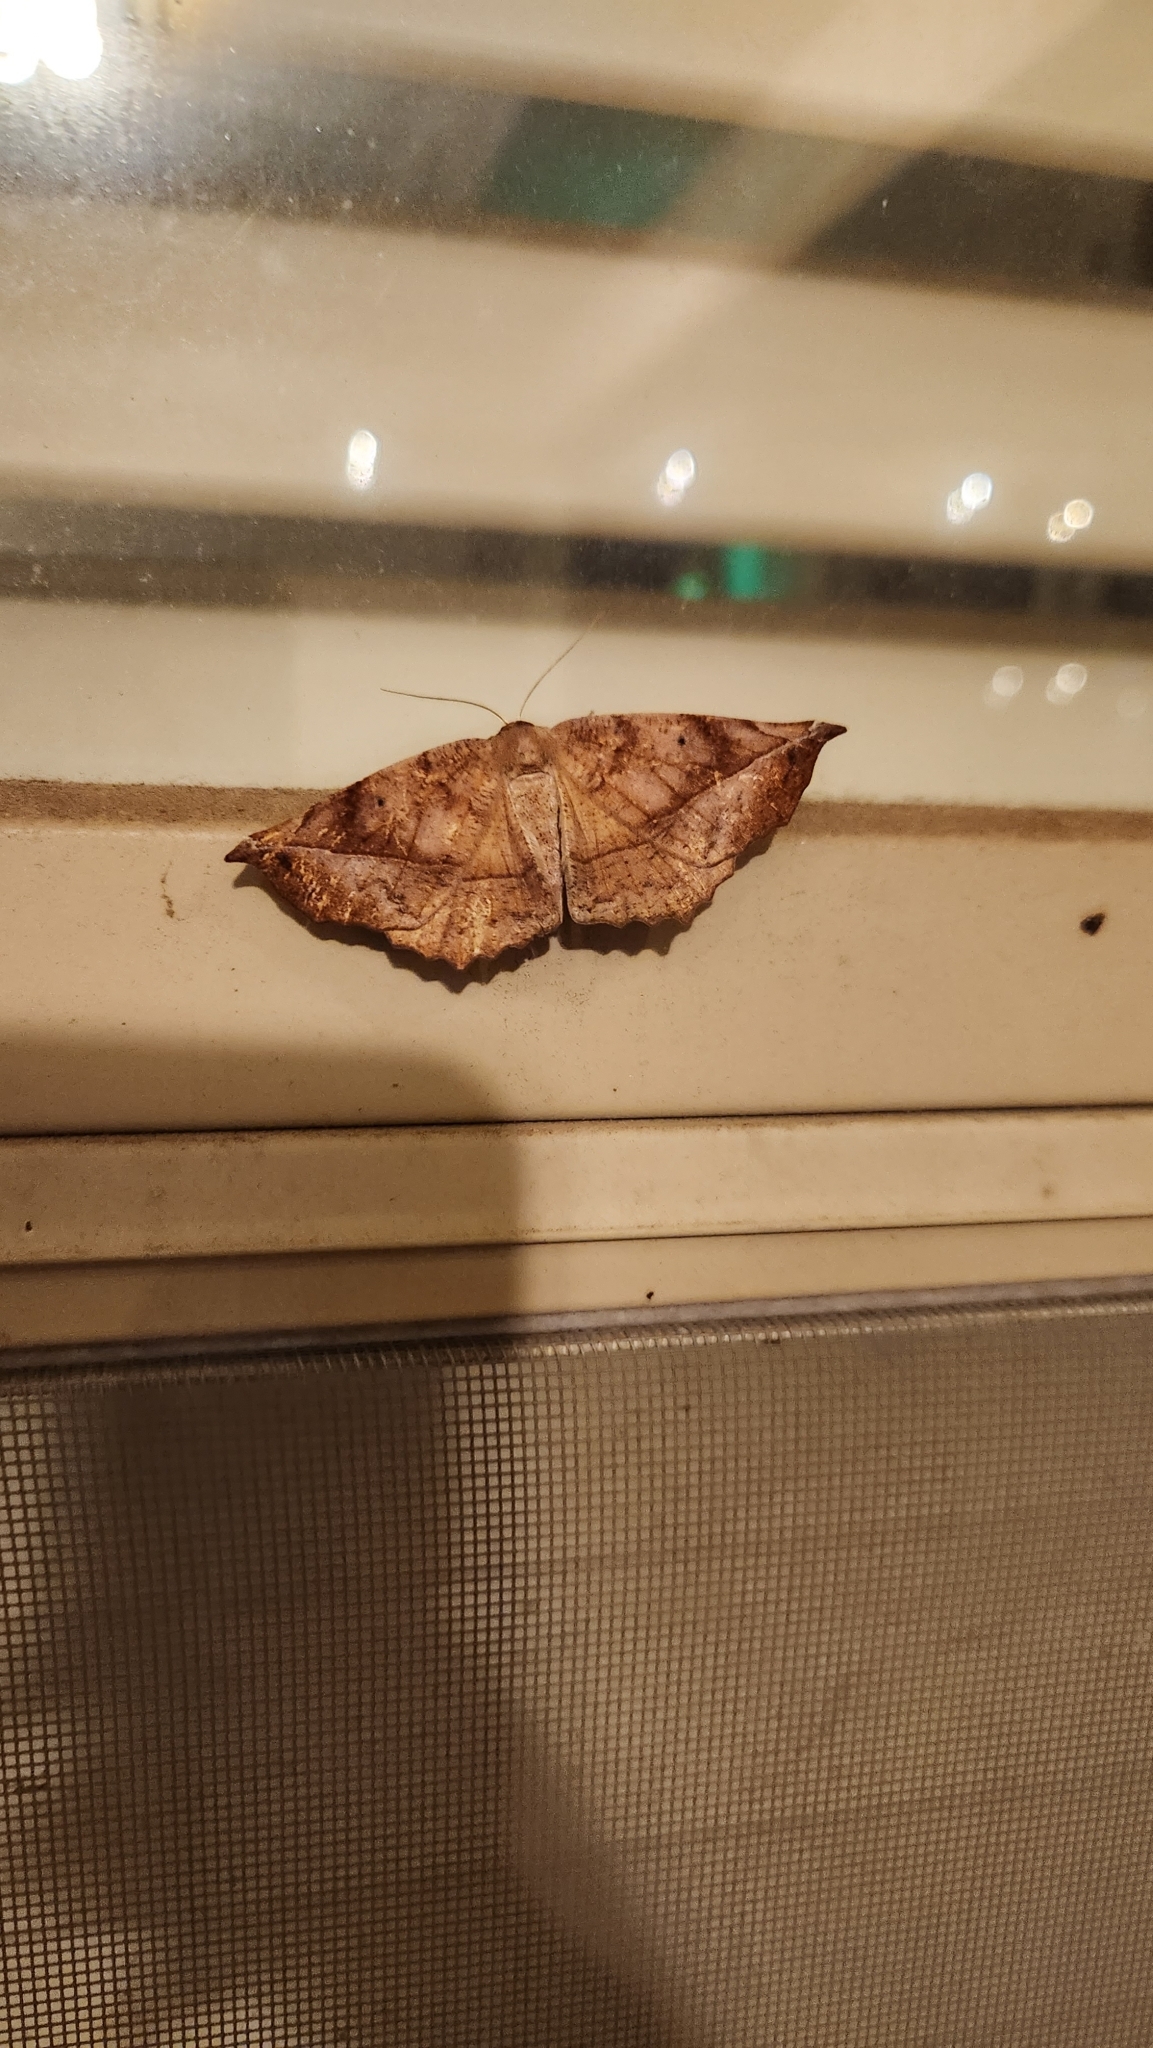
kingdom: Animalia
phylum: Arthropoda
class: Insecta
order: Lepidoptera
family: Geometridae
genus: Eutrapela
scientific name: Eutrapela clemataria
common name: Curved-toothed geometer
